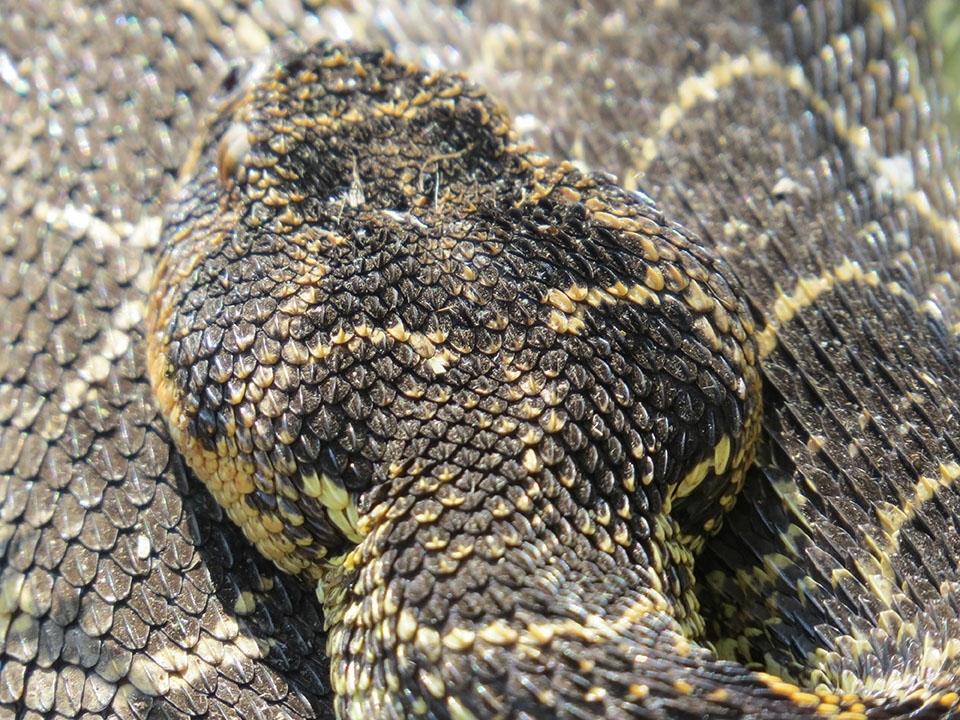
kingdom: Animalia
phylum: Chordata
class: Squamata
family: Viperidae
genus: Bitis
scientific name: Bitis arietans
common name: Puff adder
